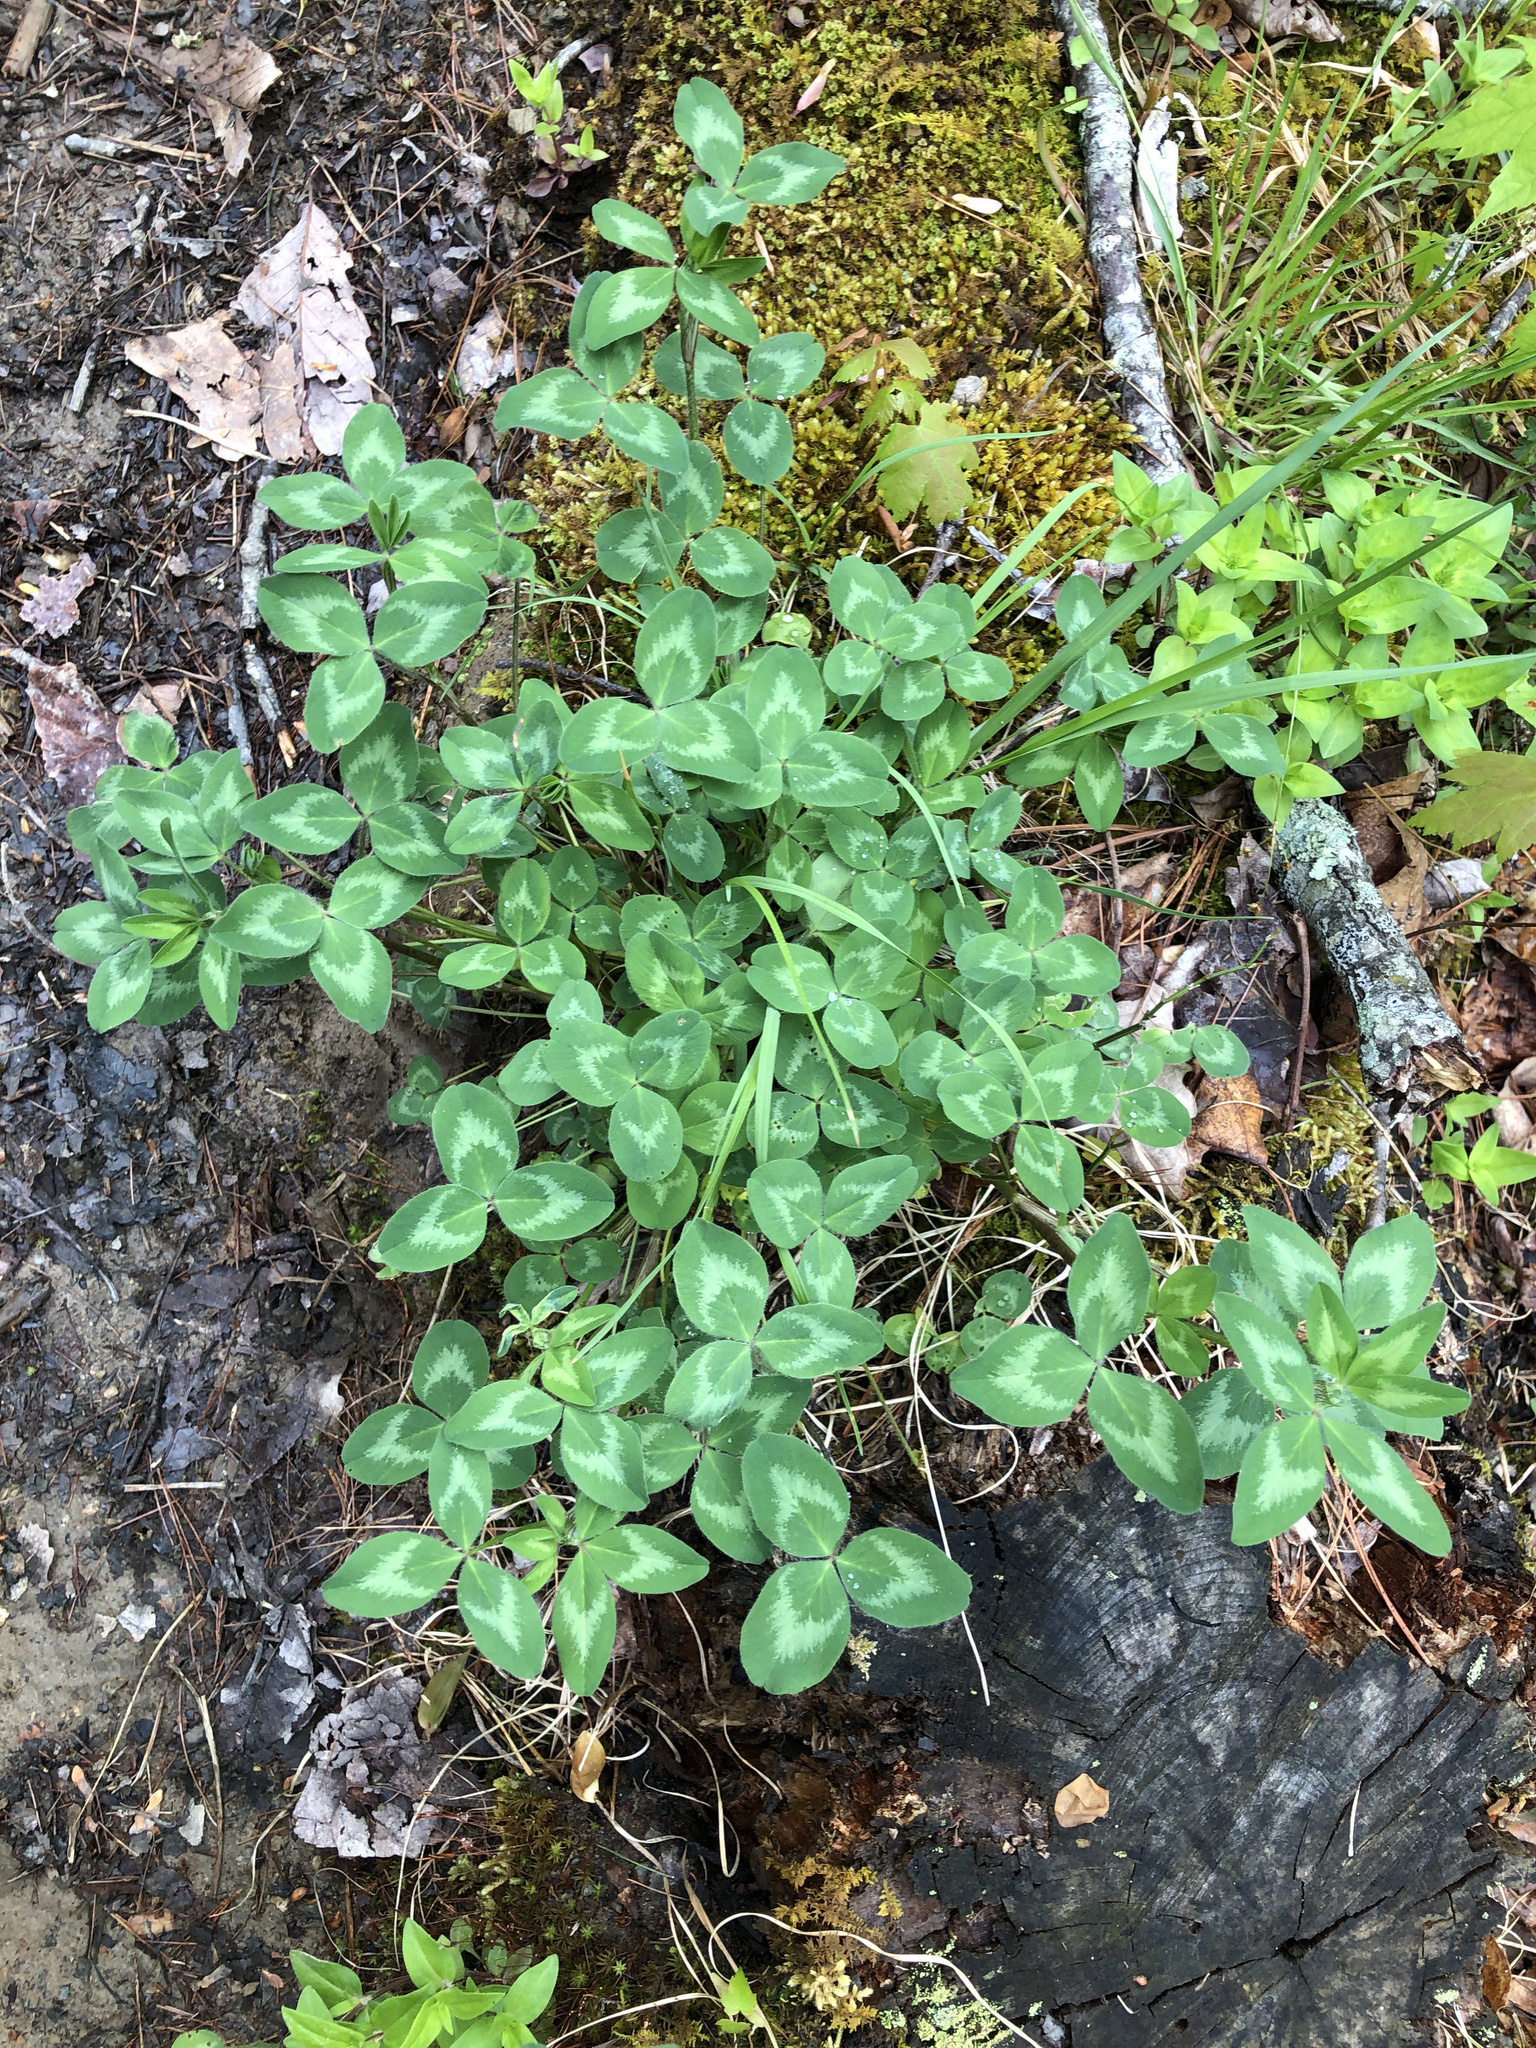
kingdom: Plantae
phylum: Tracheophyta
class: Magnoliopsida
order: Fabales
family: Fabaceae
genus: Trifolium
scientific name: Trifolium pratense
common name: Red clover
